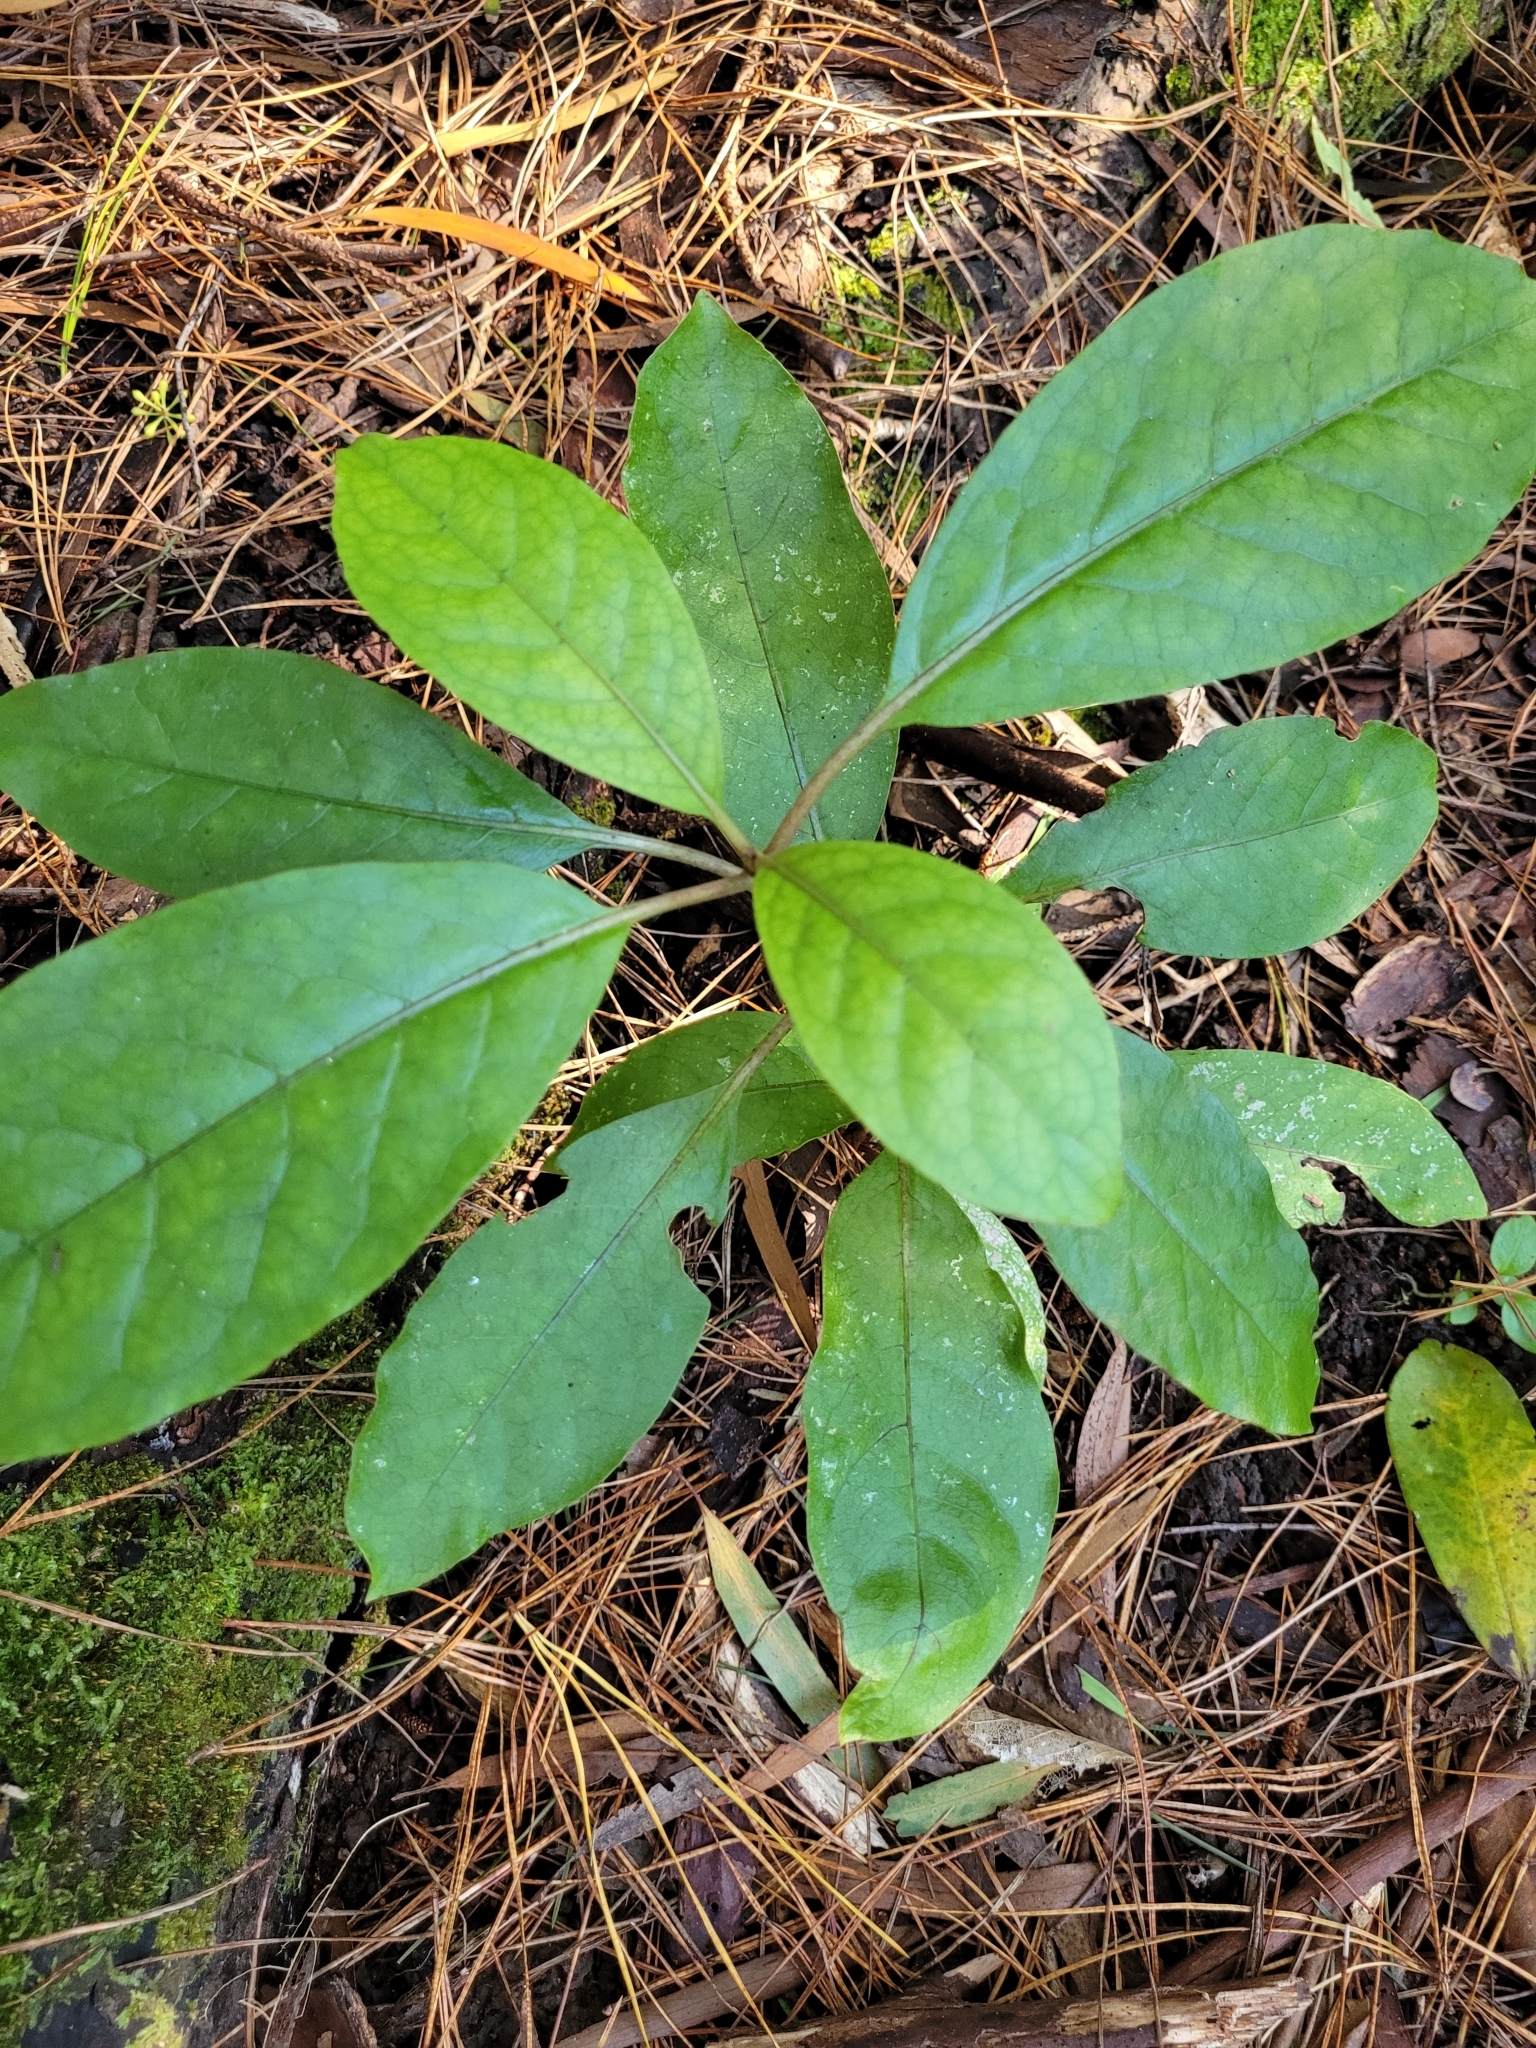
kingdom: Plantae
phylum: Tracheophyta
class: Magnoliopsida
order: Gentianales
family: Rubiaceae
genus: Coprosma
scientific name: Coprosma autumnalis
